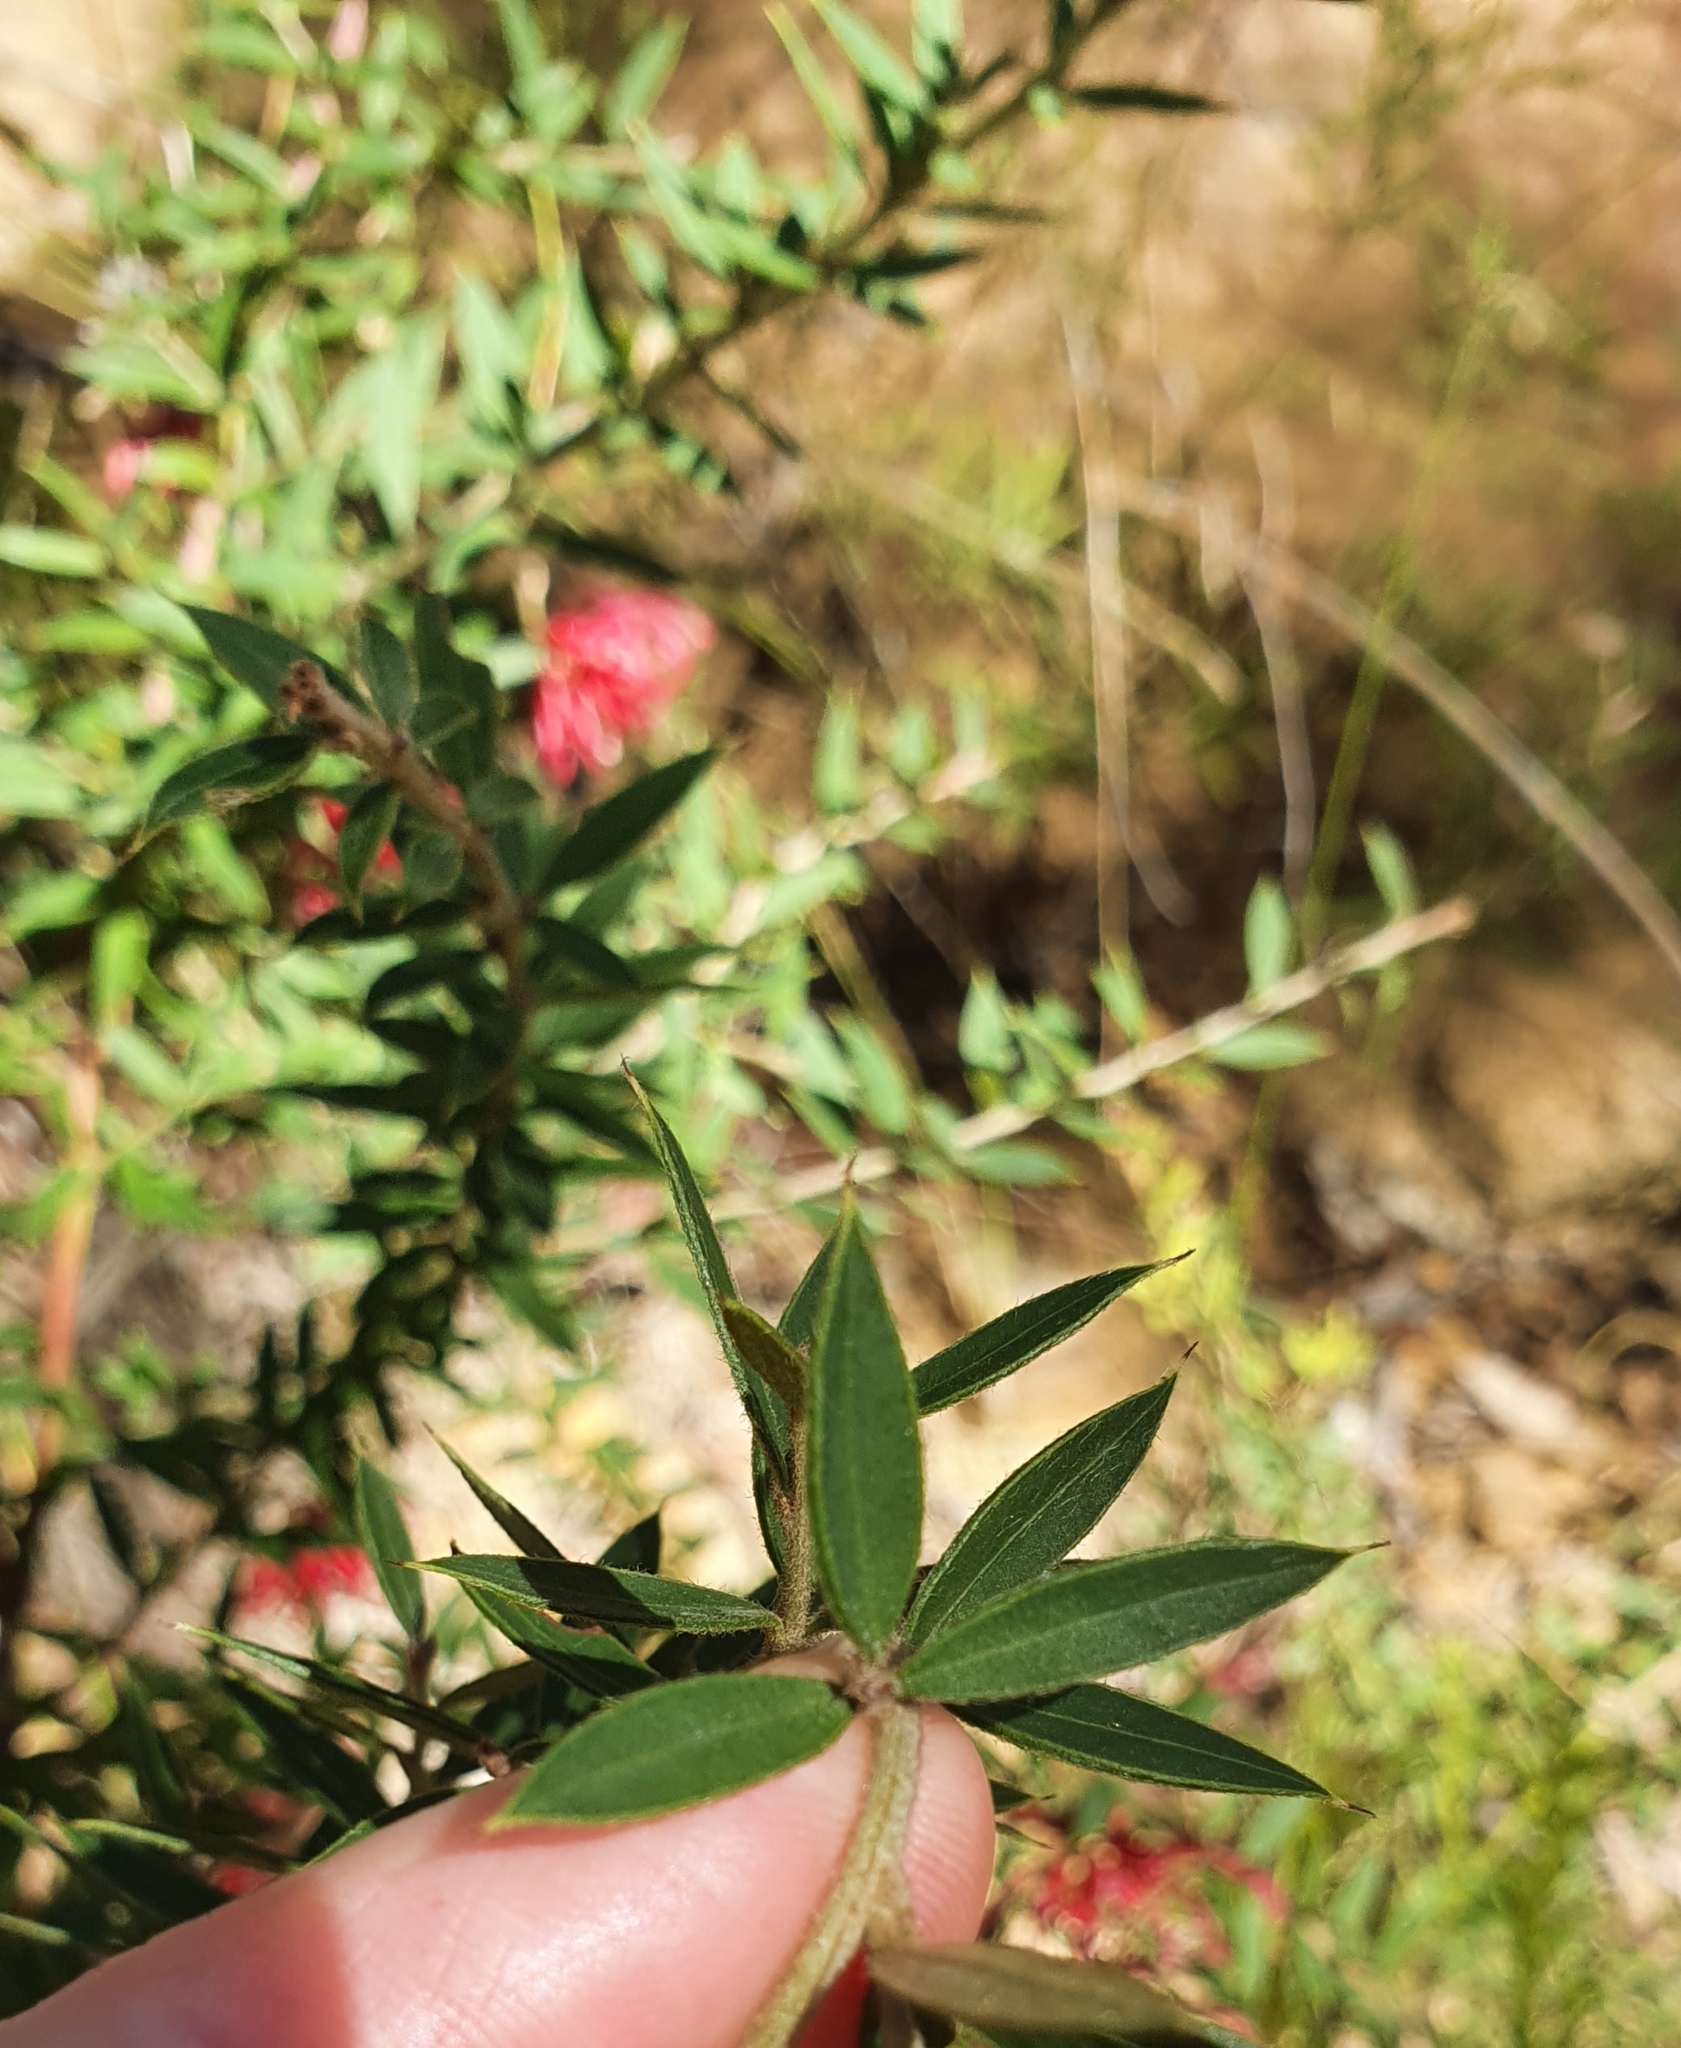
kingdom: Plantae
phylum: Tracheophyta
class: Magnoliopsida
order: Proteales
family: Proteaceae
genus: Grevillea
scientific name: Grevillea speciosa
